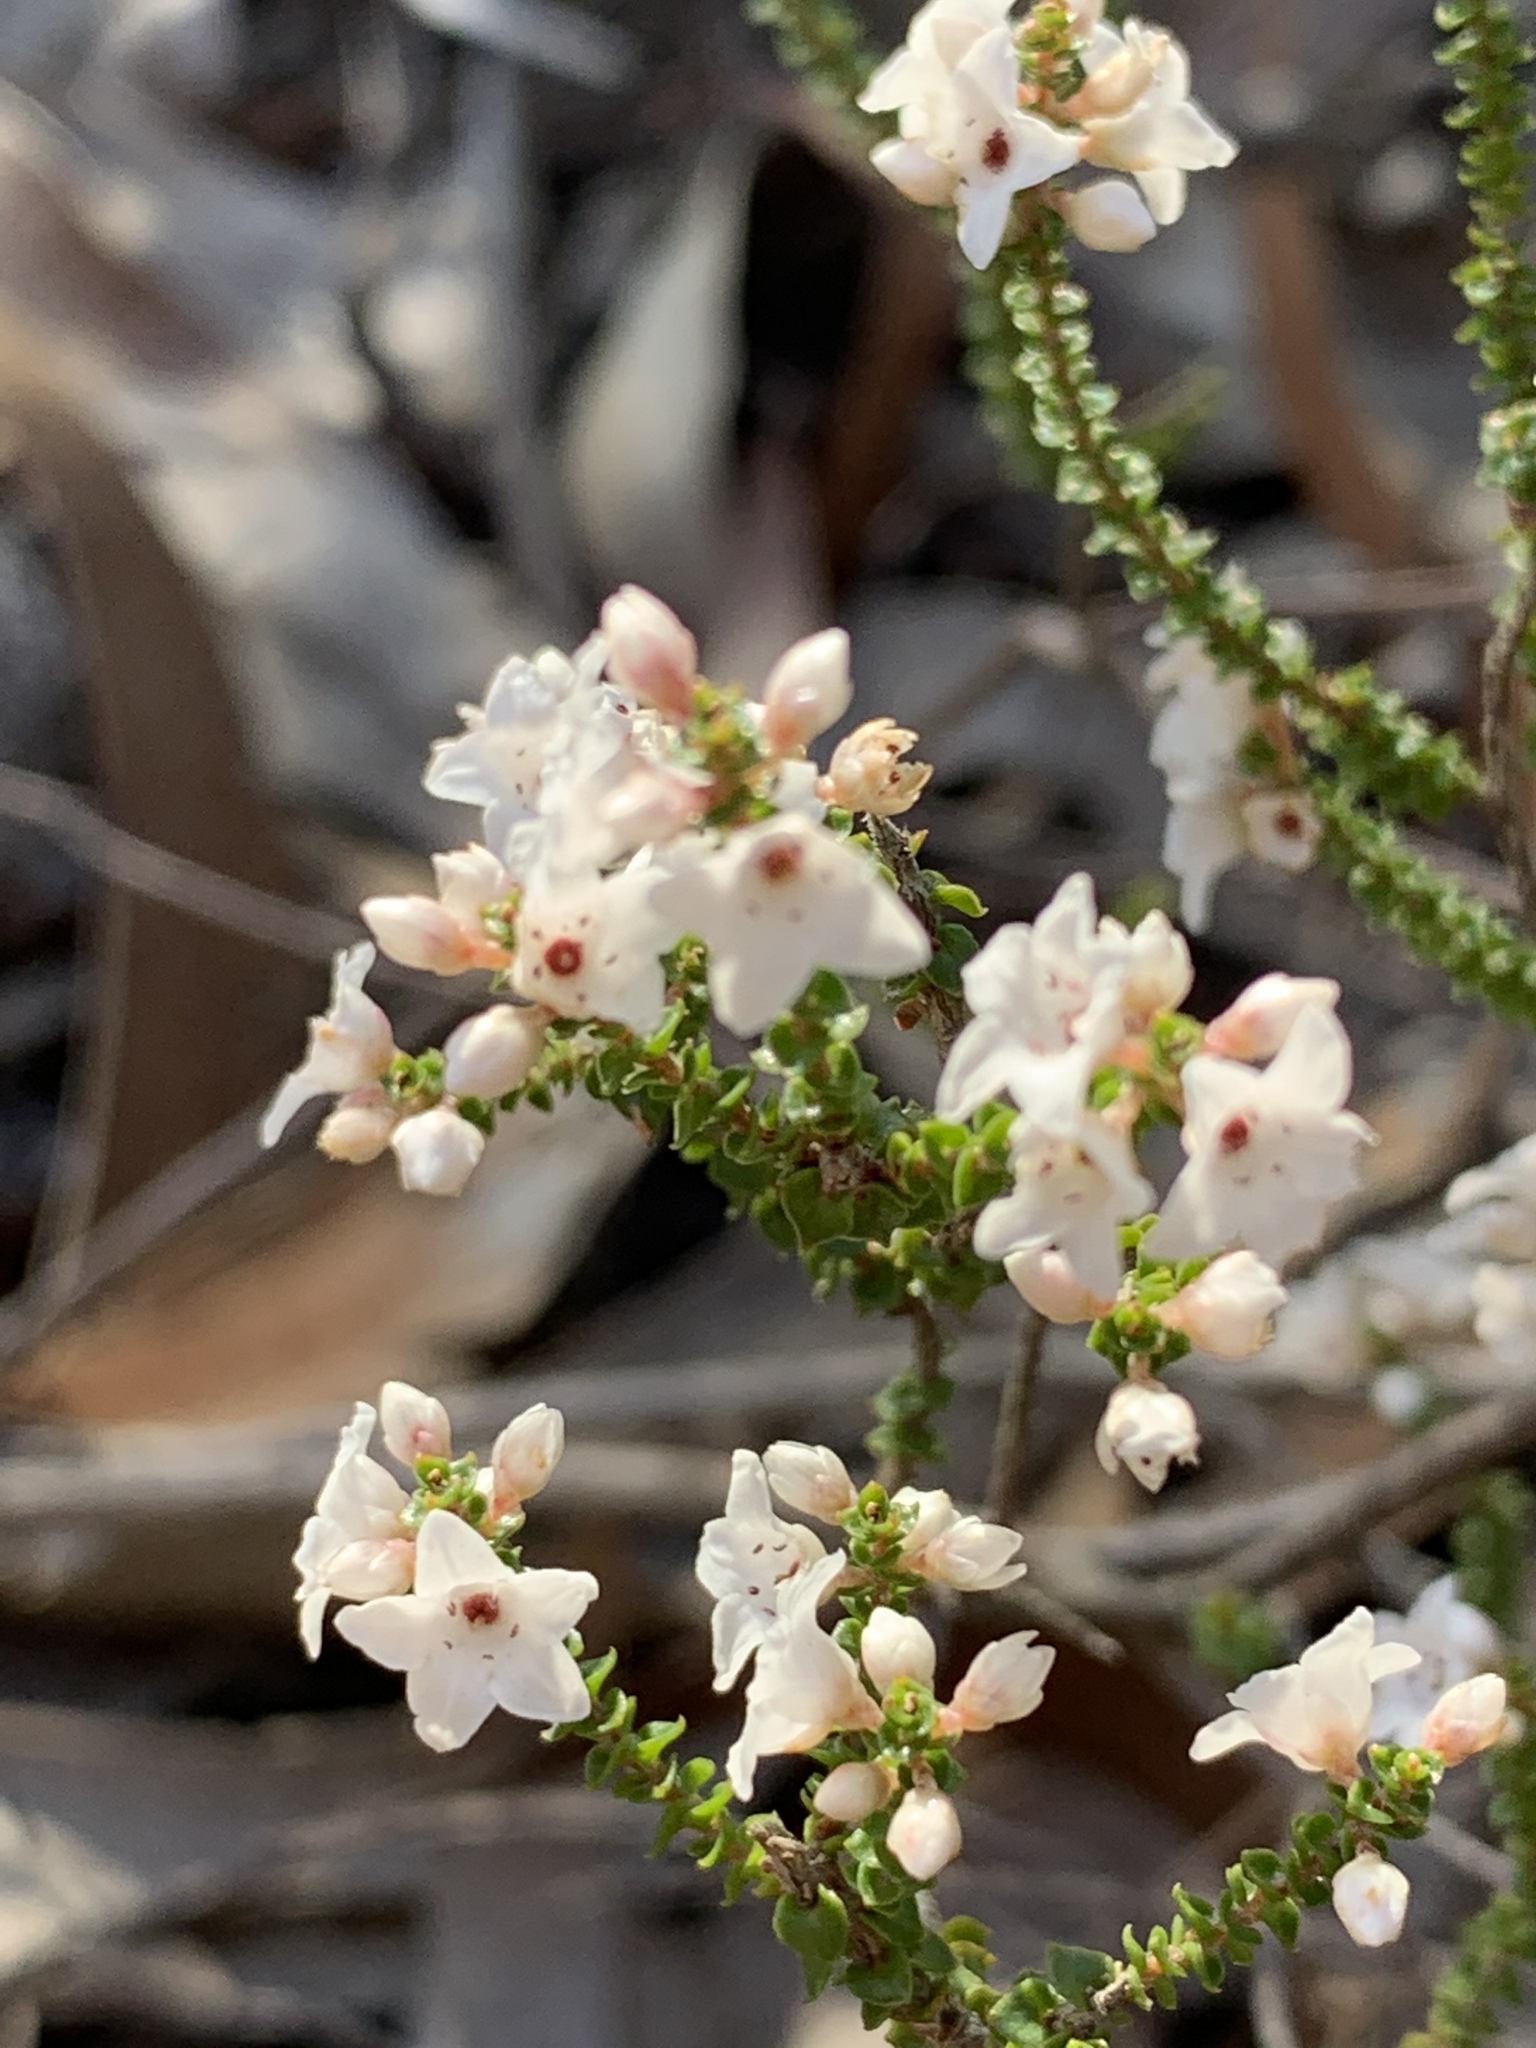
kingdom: Plantae
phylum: Tracheophyta
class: Magnoliopsida
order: Ericales
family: Ericaceae
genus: Epacris
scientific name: Epacris microphylla
